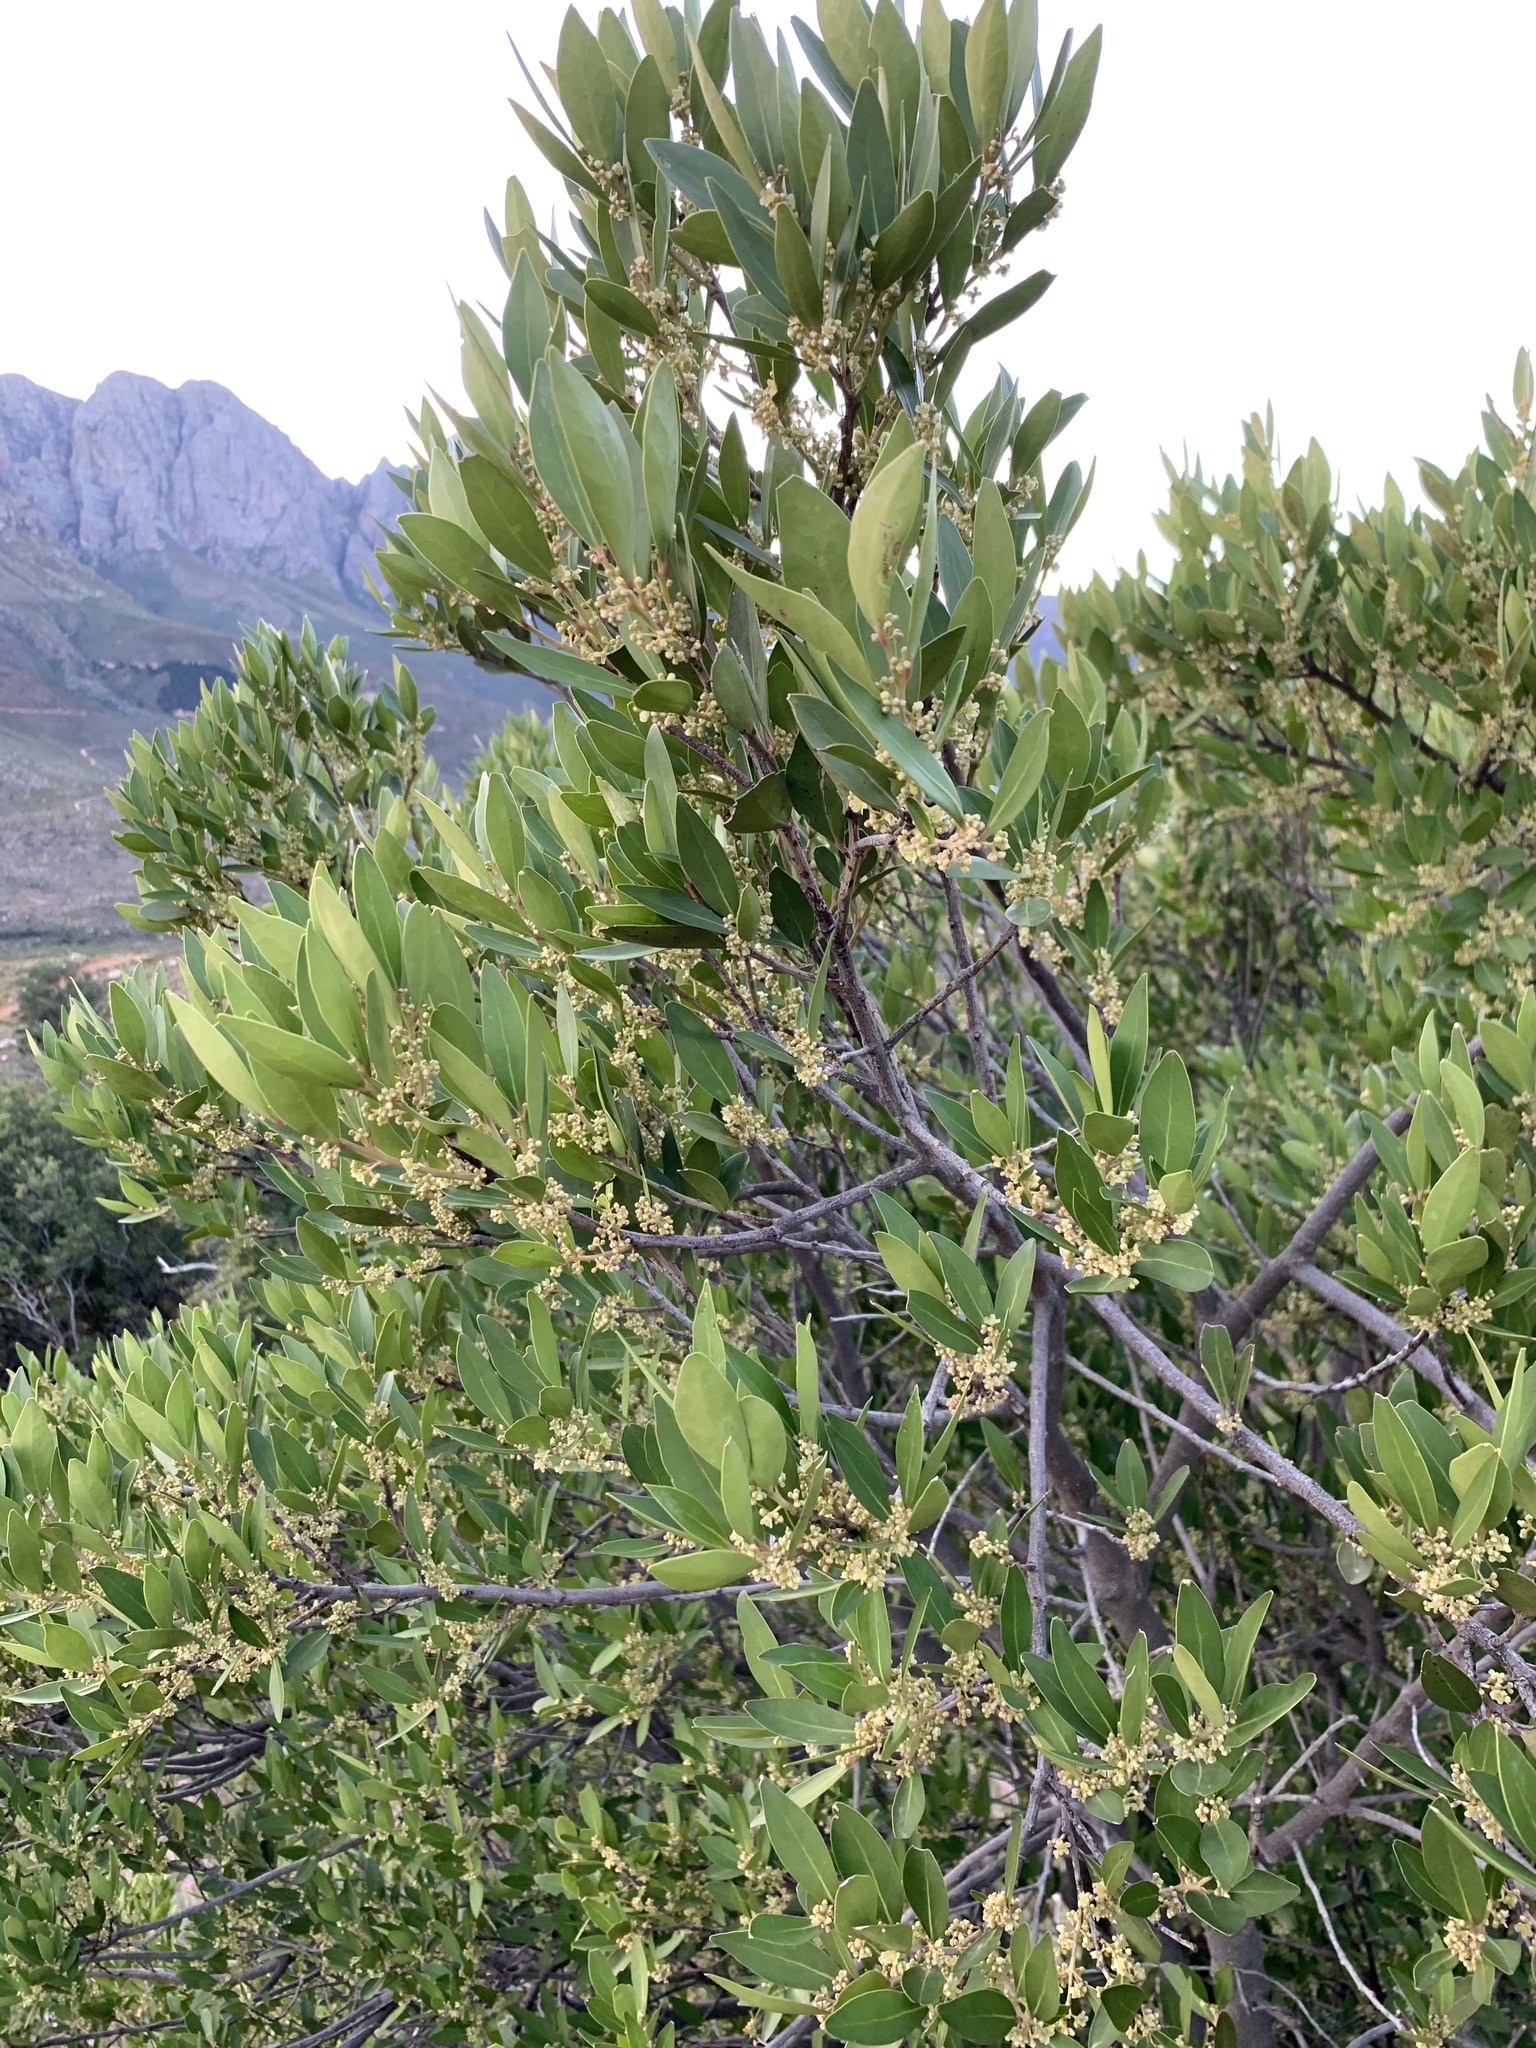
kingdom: Plantae
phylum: Tracheophyta
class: Magnoliopsida
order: Celastrales
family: Celastraceae
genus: Gymnosporia
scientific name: Gymnosporia laurina
